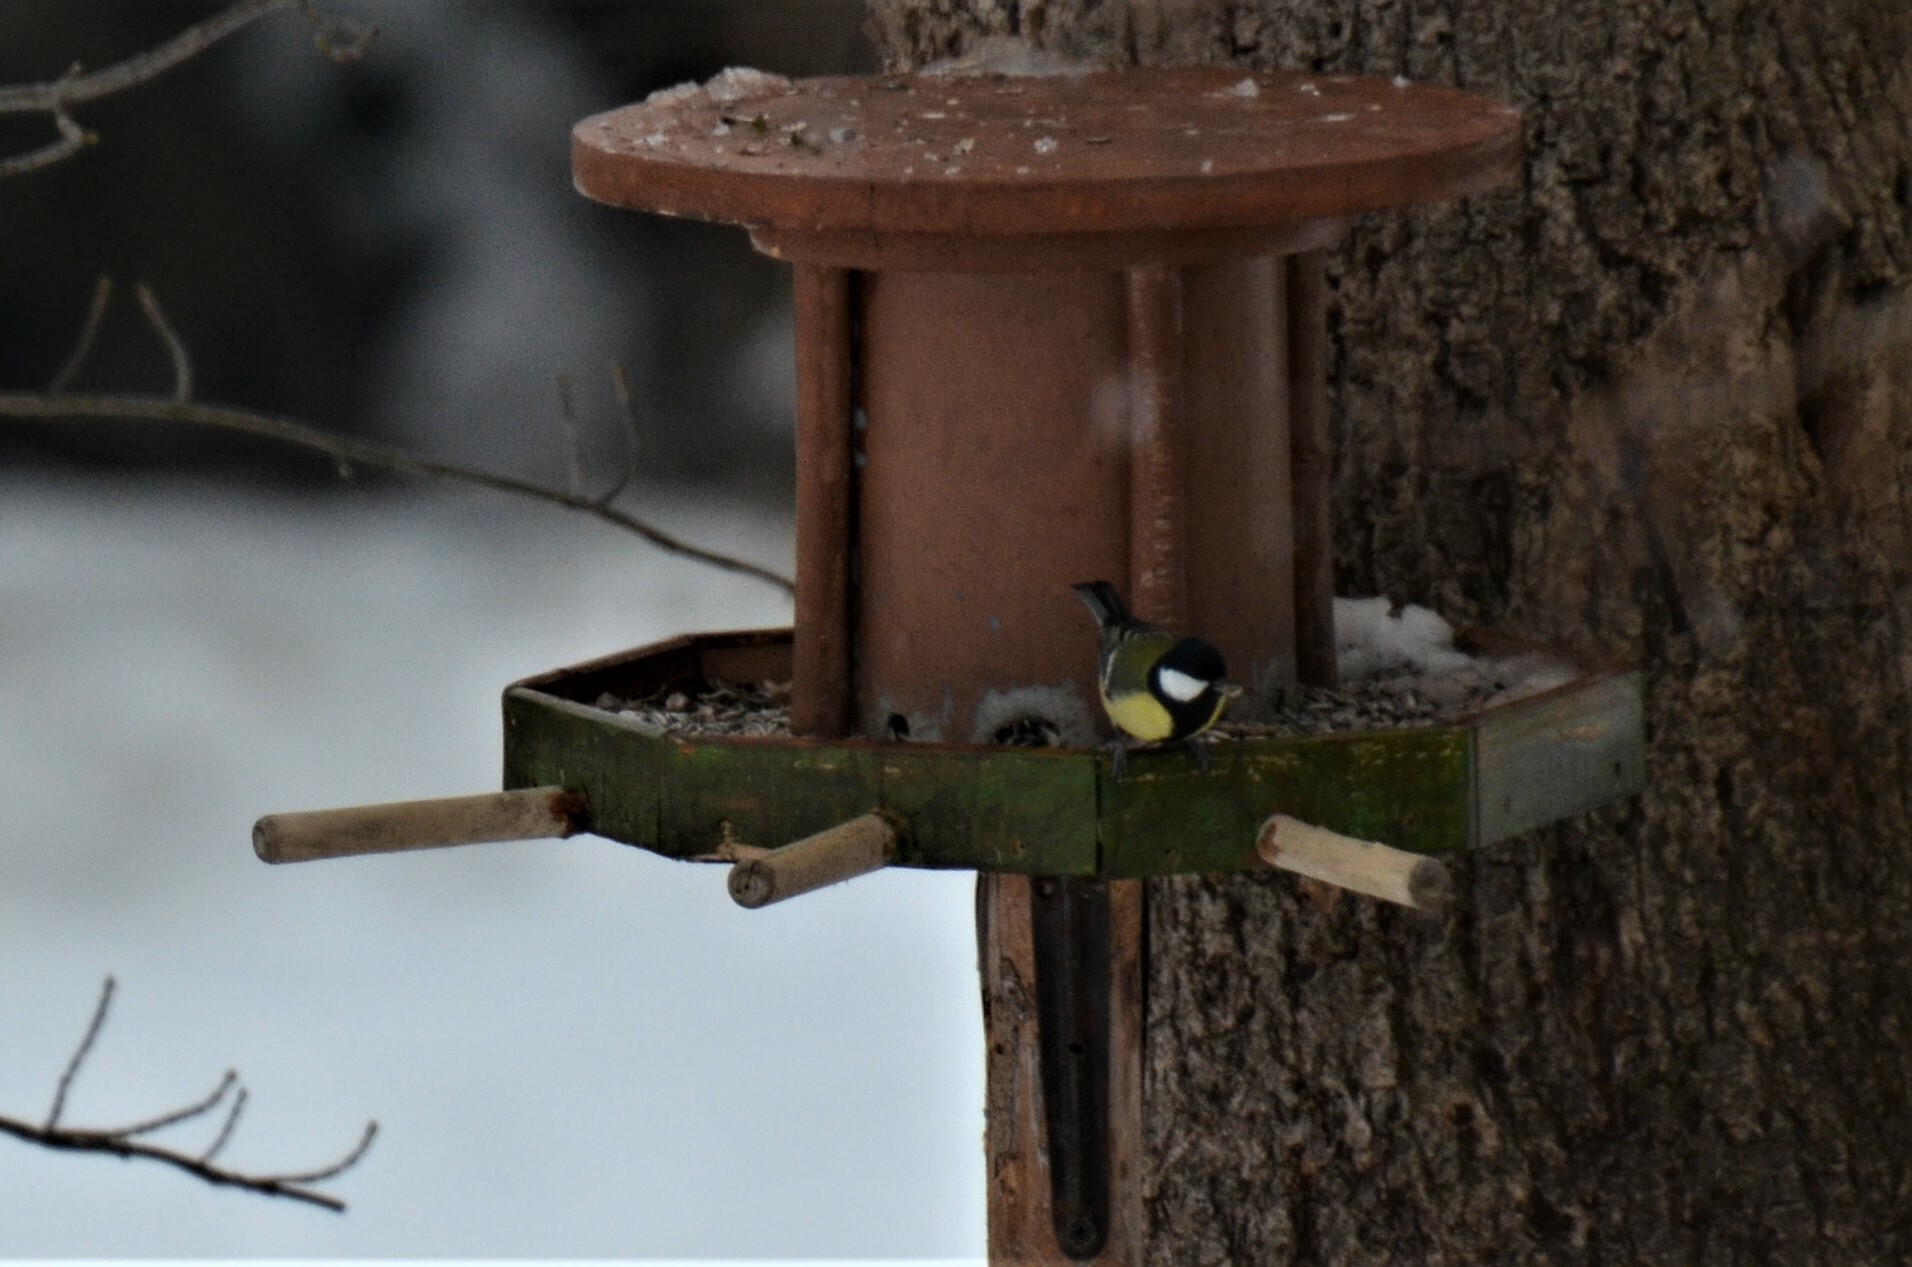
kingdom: Animalia
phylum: Chordata
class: Aves
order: Passeriformes
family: Paridae
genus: Parus
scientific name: Parus major
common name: Great tit
